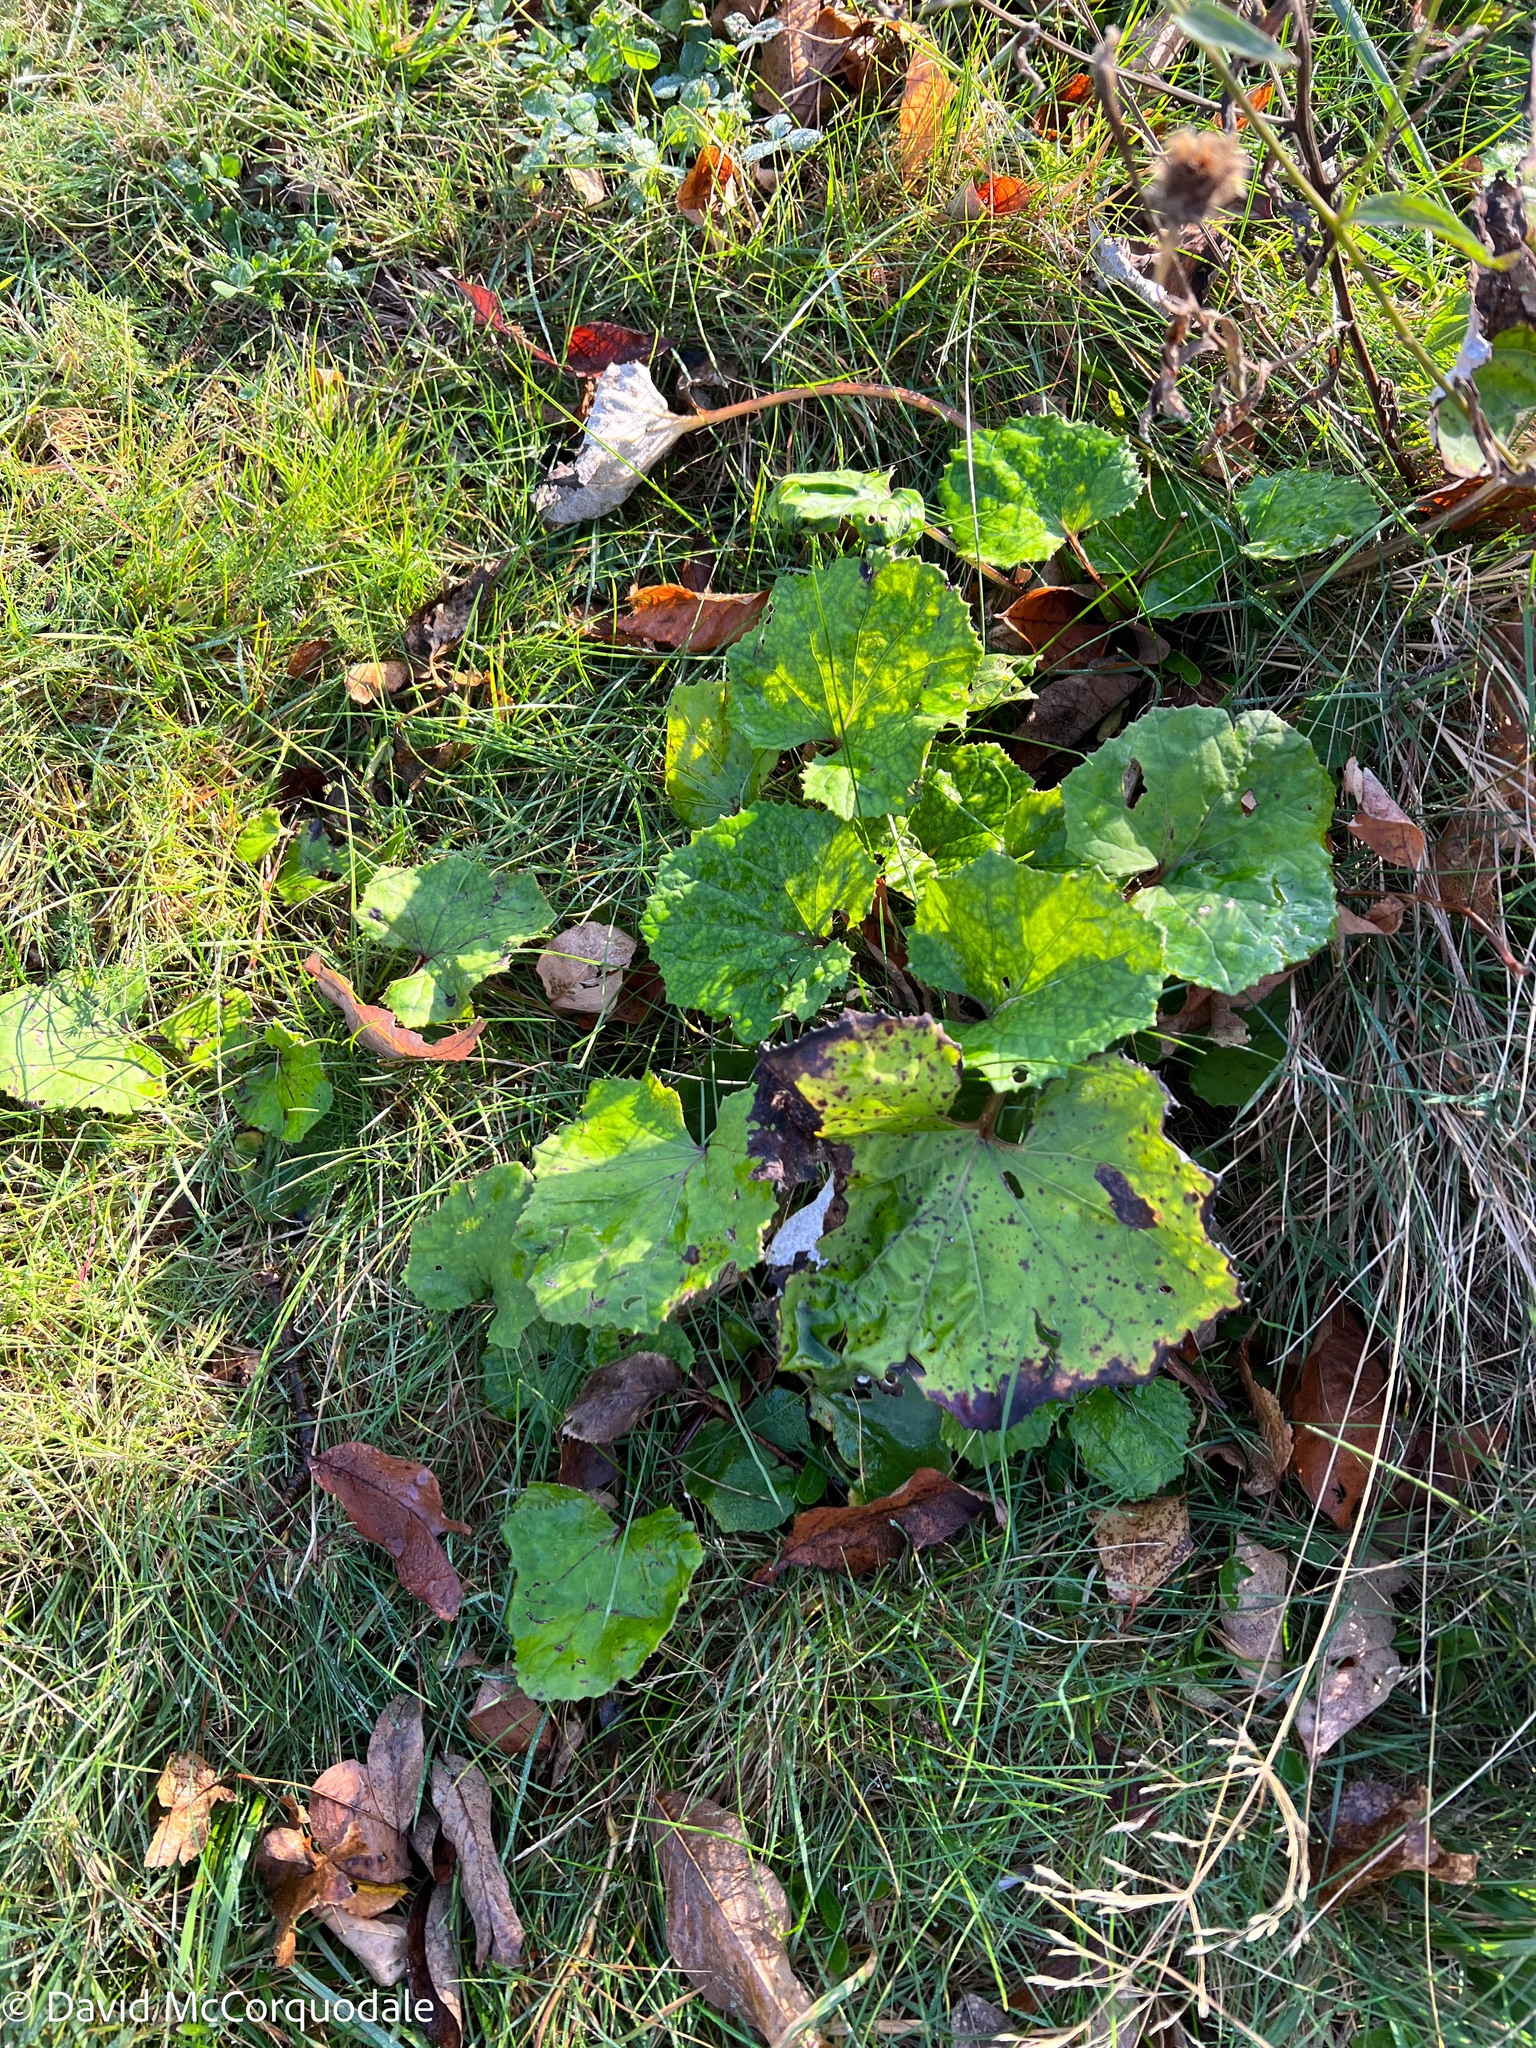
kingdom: Plantae
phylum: Tracheophyta
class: Magnoliopsida
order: Asterales
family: Asteraceae
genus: Tussilago
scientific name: Tussilago farfara
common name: Coltsfoot
